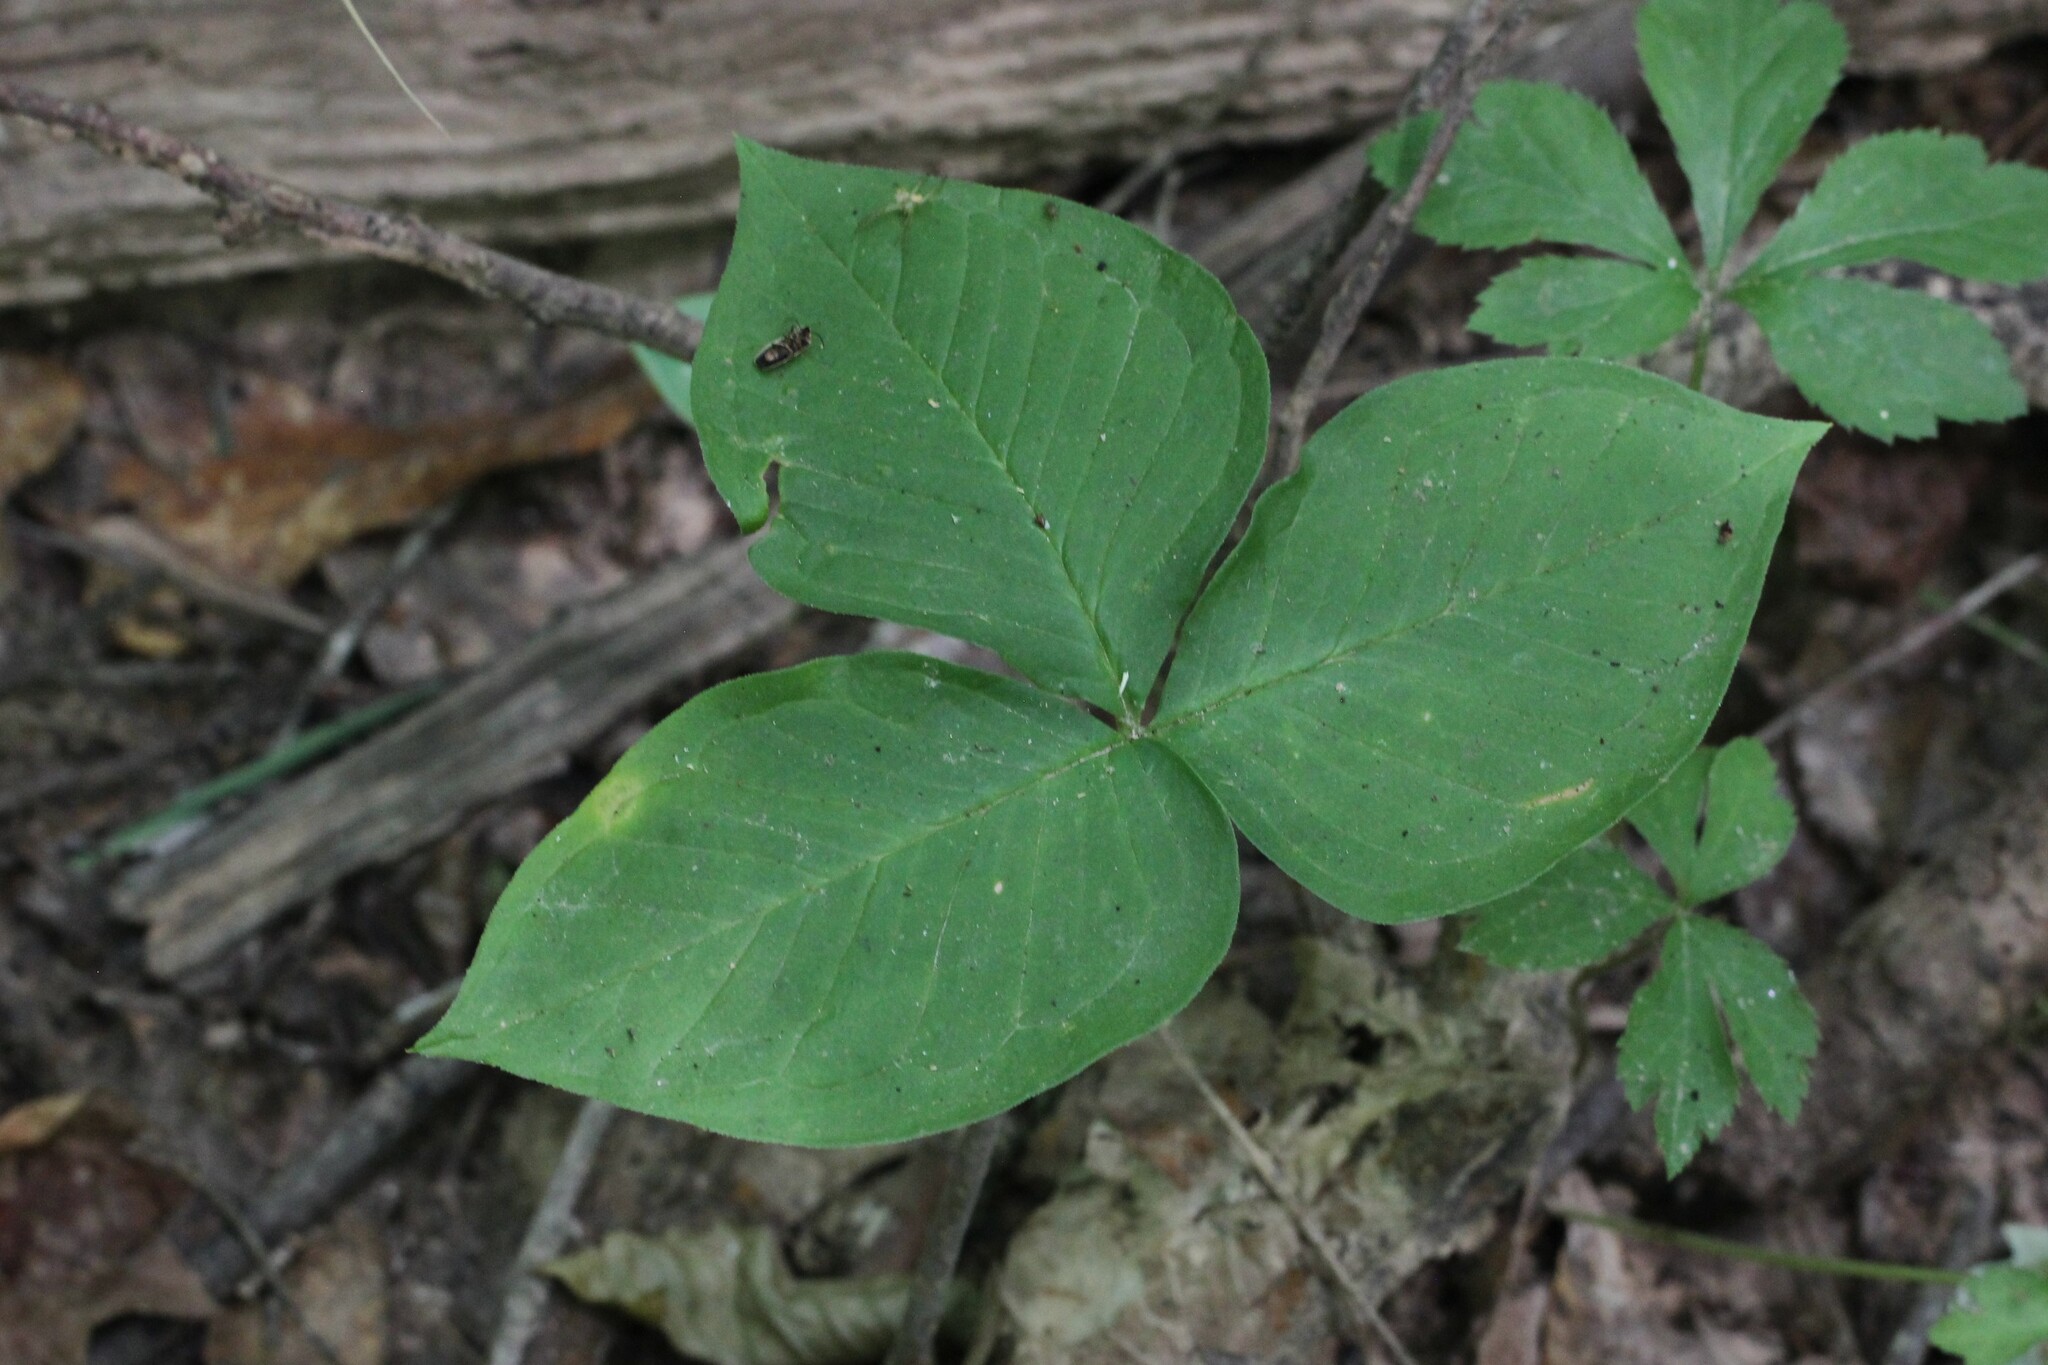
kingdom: Plantae
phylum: Tracheophyta
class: Liliopsida
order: Alismatales
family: Araceae
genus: Arisaema
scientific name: Arisaema triphyllum
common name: Jack-in-the-pulpit
